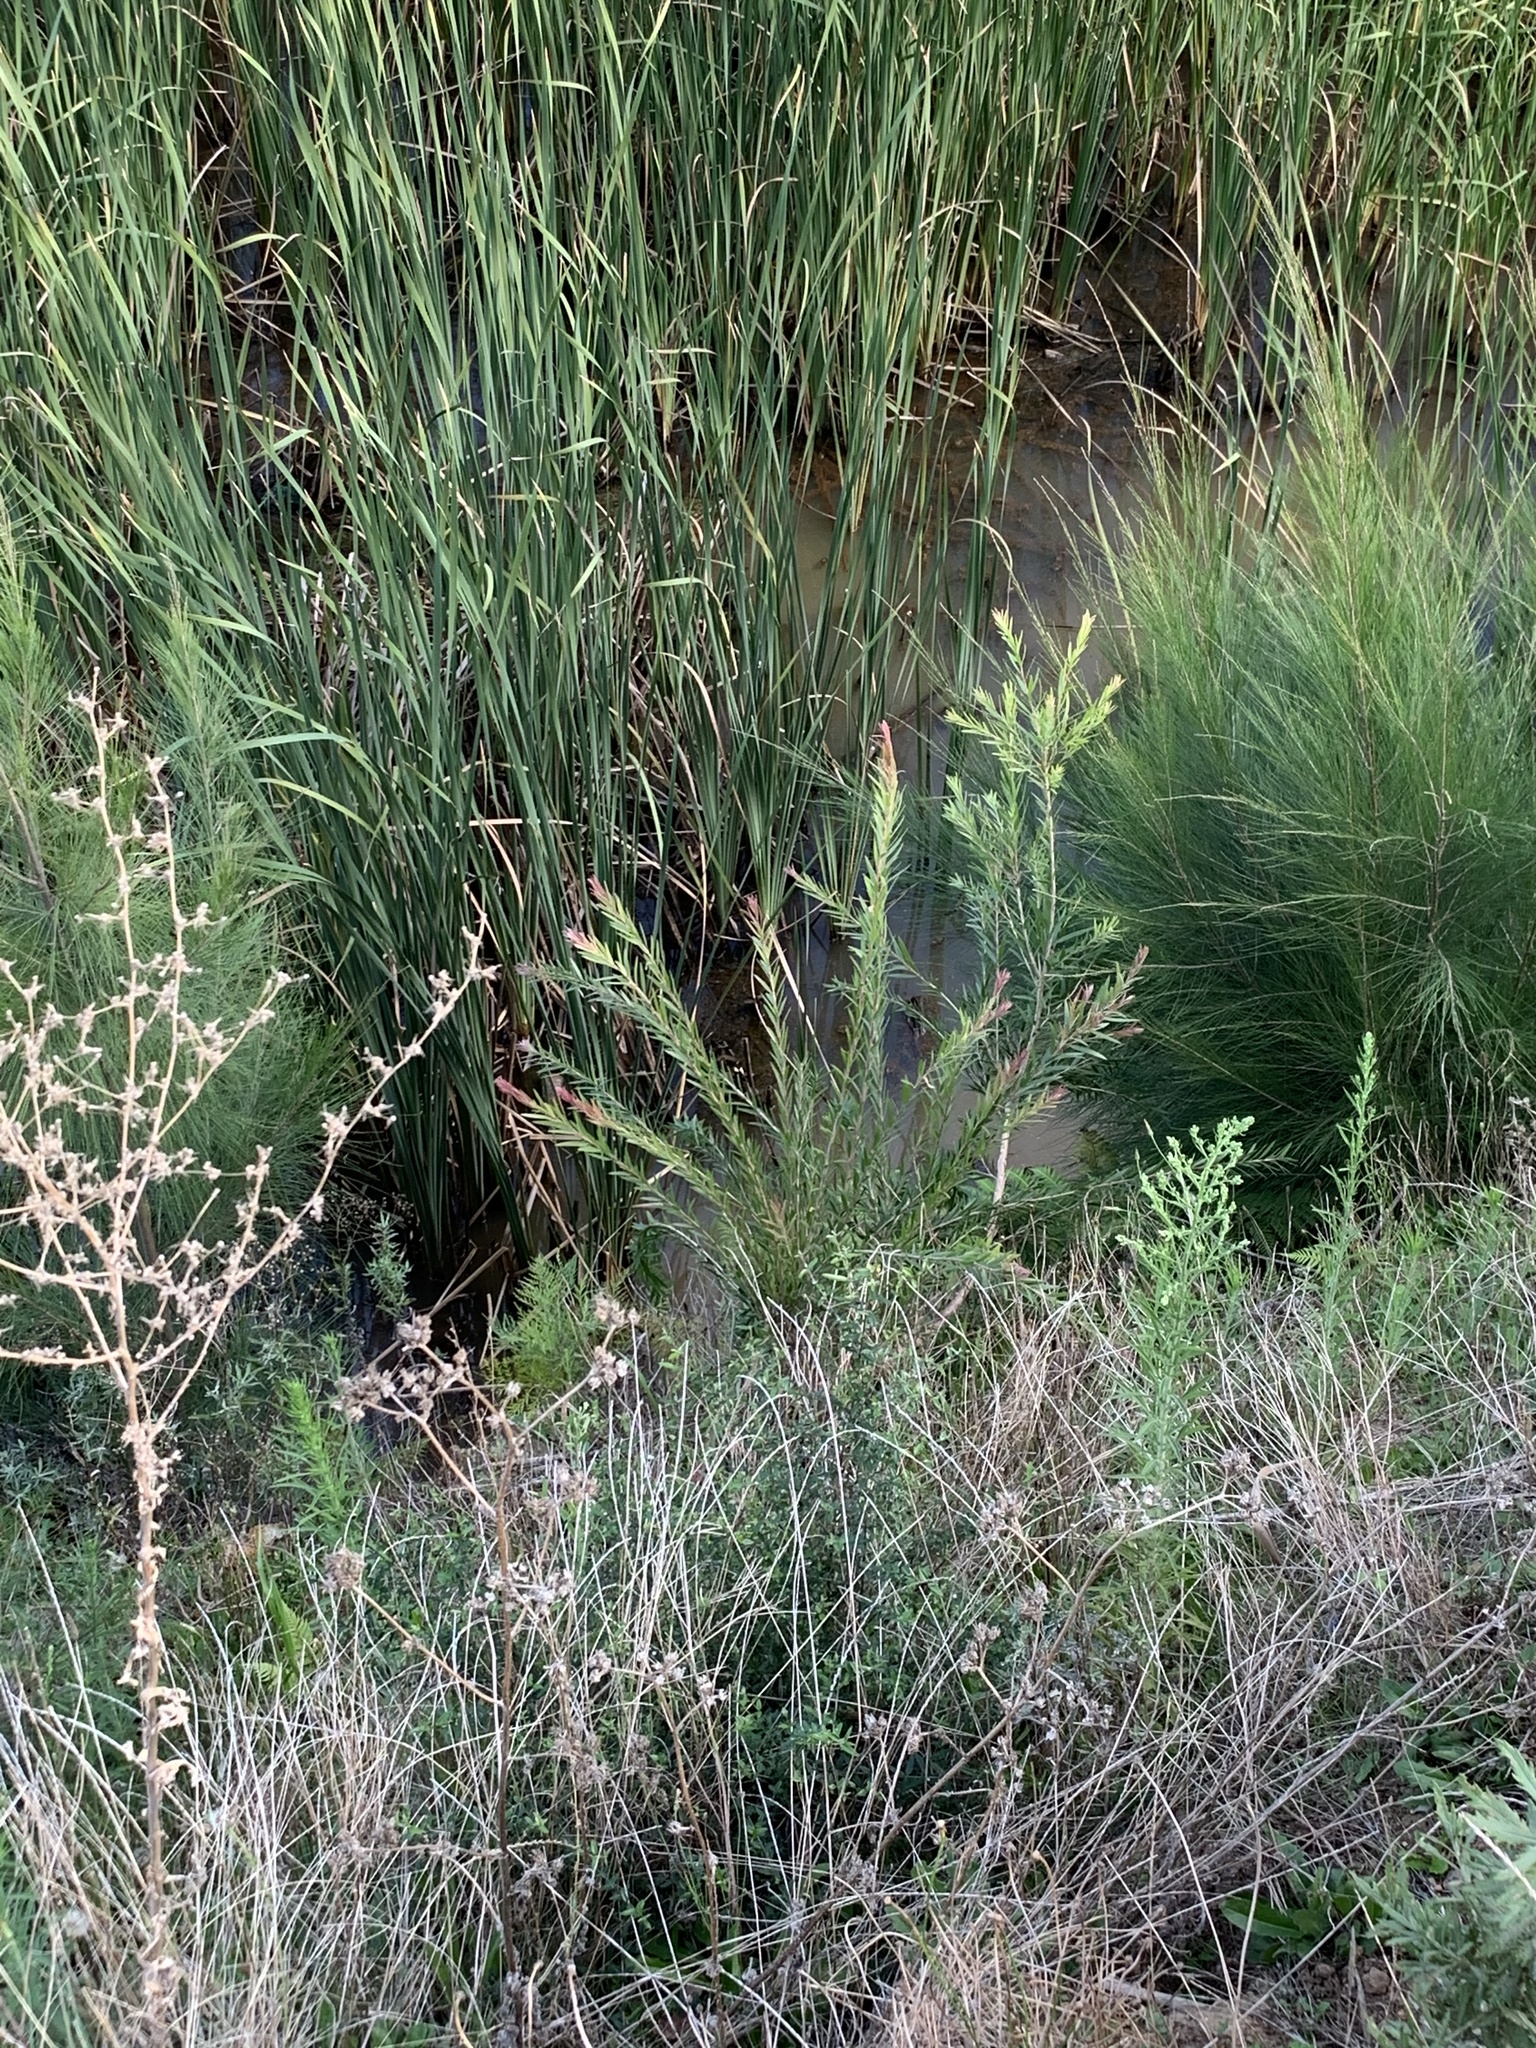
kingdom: Plantae
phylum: Tracheophyta
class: Magnoliopsida
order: Myrtales
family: Myrtaceae
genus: Callistemon
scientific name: Callistemon viminalis
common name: Drooping bottlebrush
